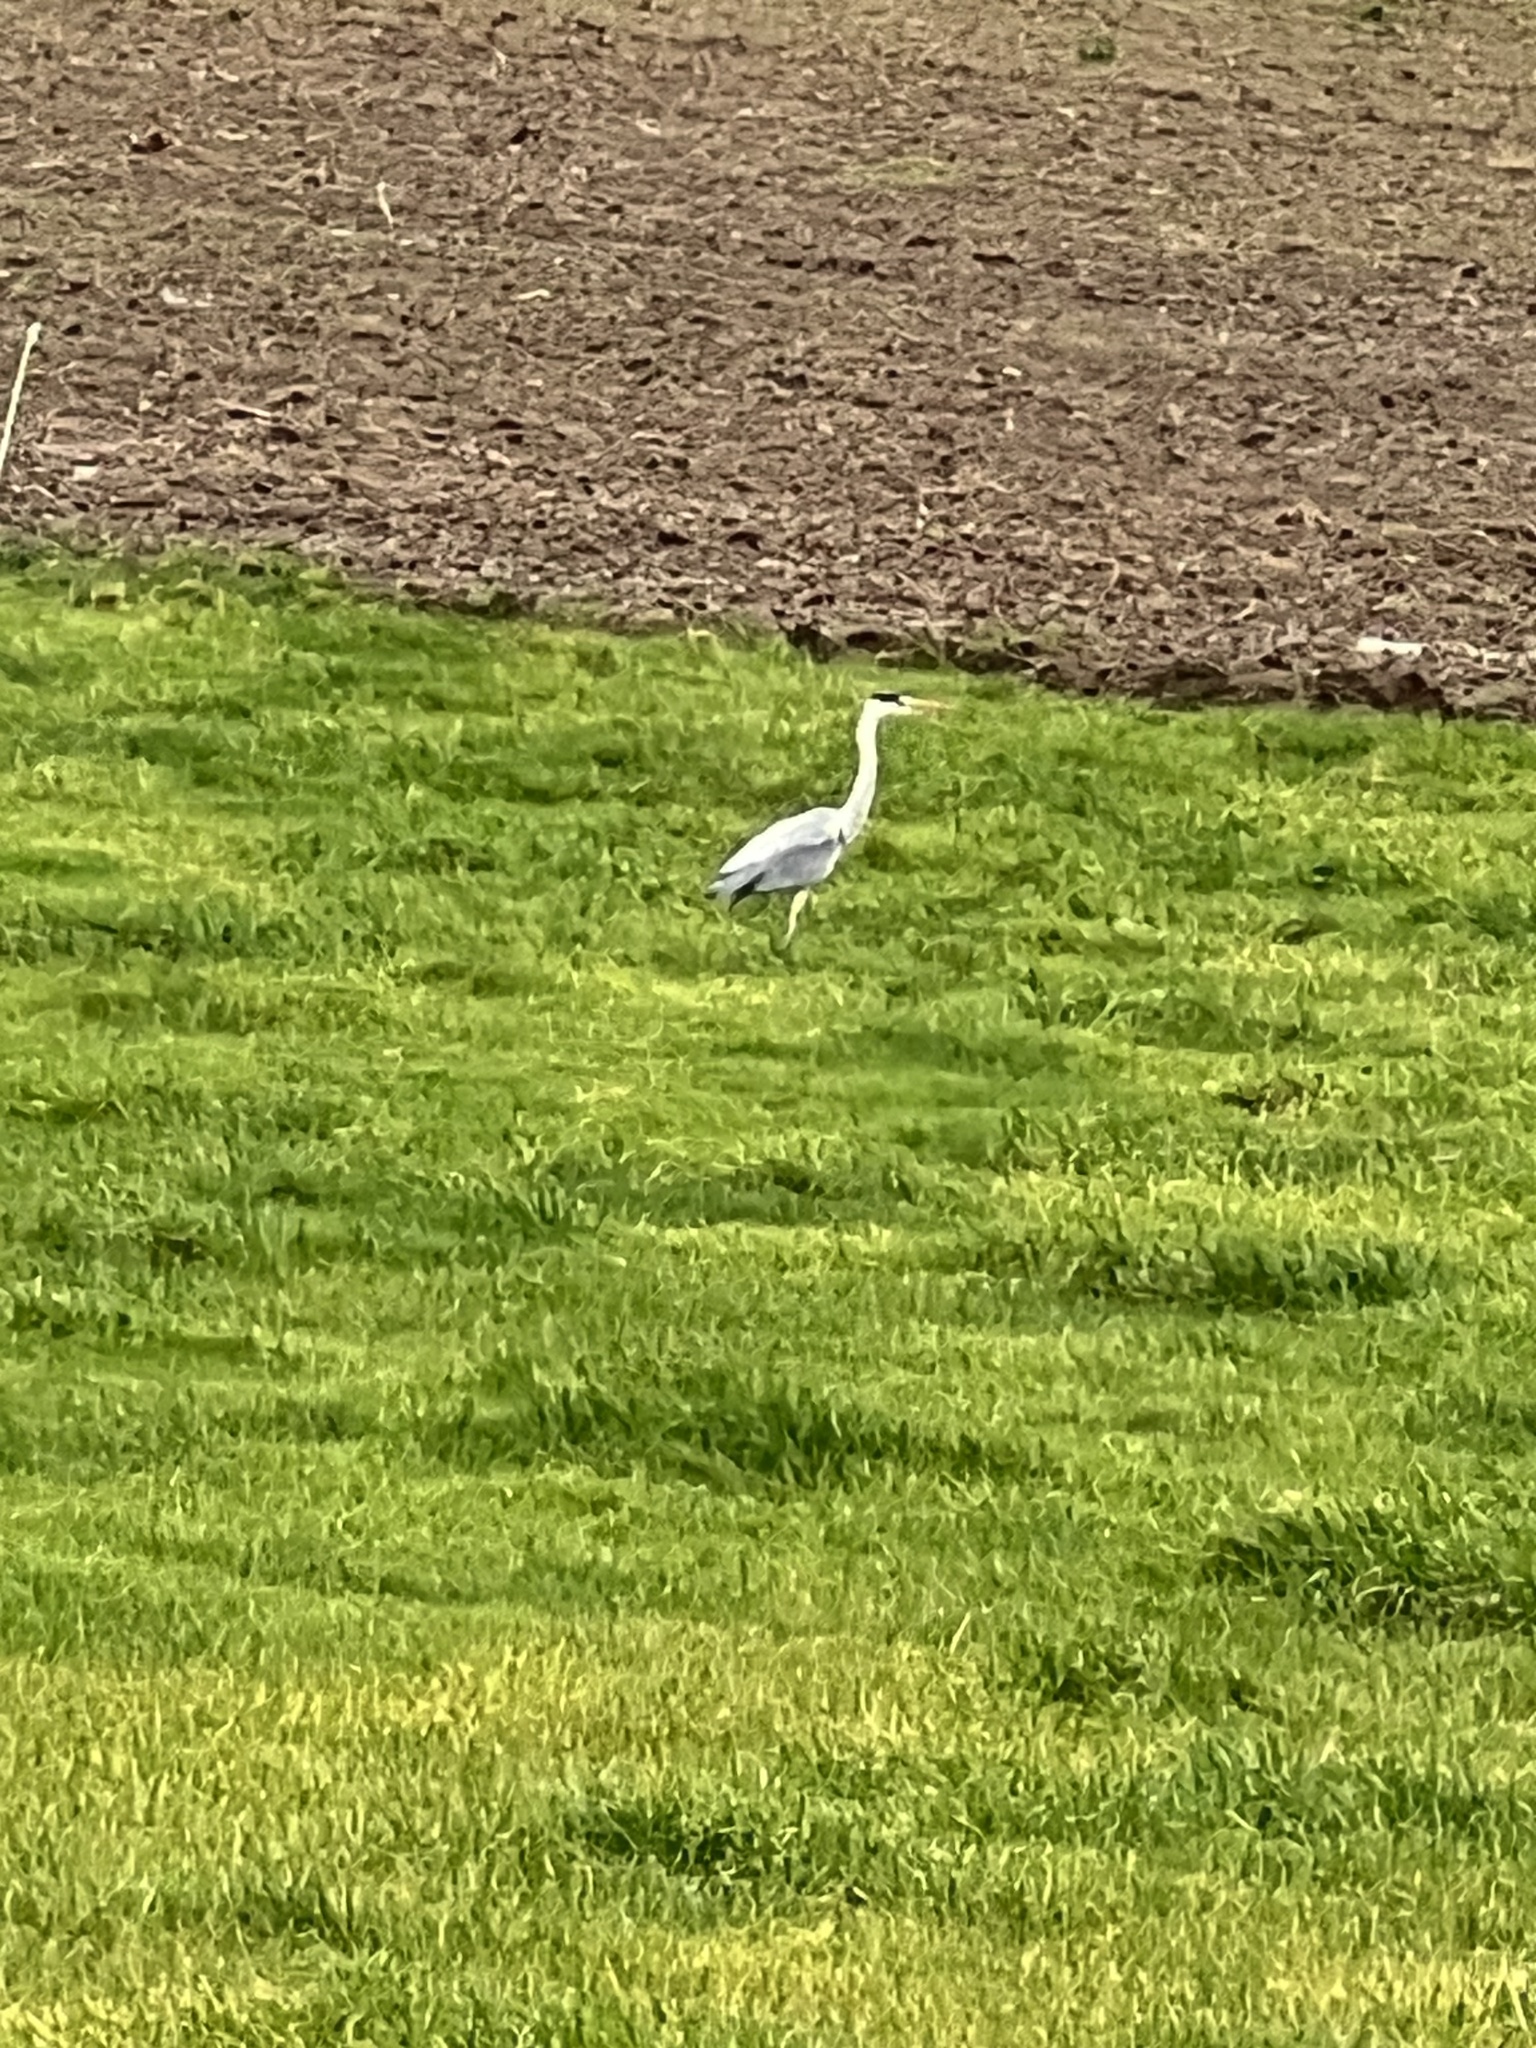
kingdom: Animalia
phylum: Chordata
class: Aves
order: Pelecaniformes
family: Ardeidae
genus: Ardea
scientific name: Ardea cinerea
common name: Grey heron
